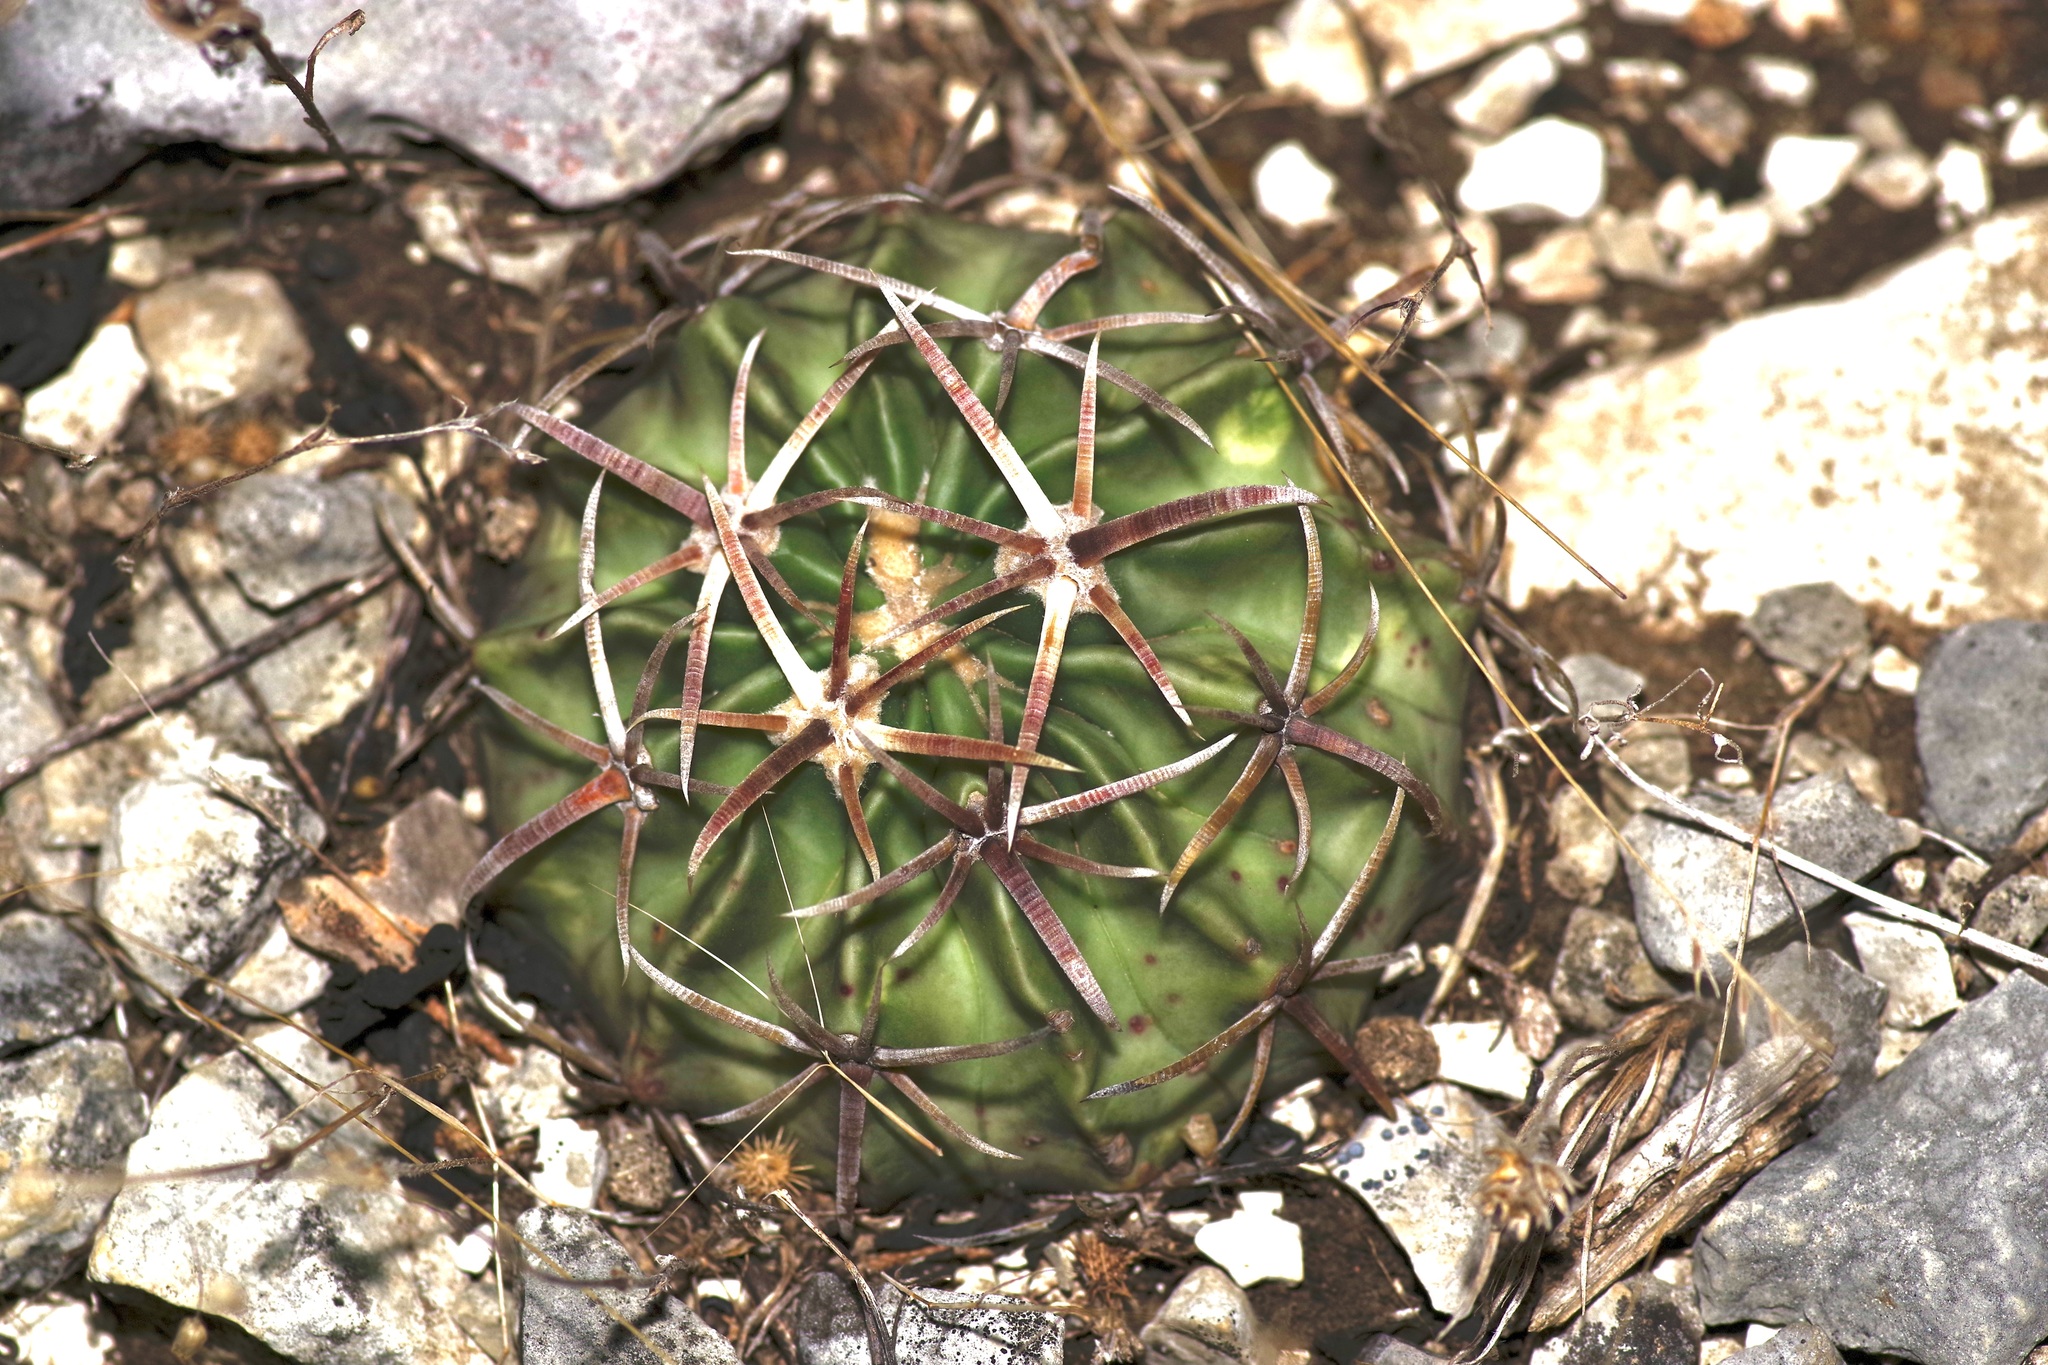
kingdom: Plantae
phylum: Tracheophyta
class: Magnoliopsida
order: Caryophyllales
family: Cactaceae
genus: Echinocactus
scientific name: Echinocactus texensis
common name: Devil's pincushion
